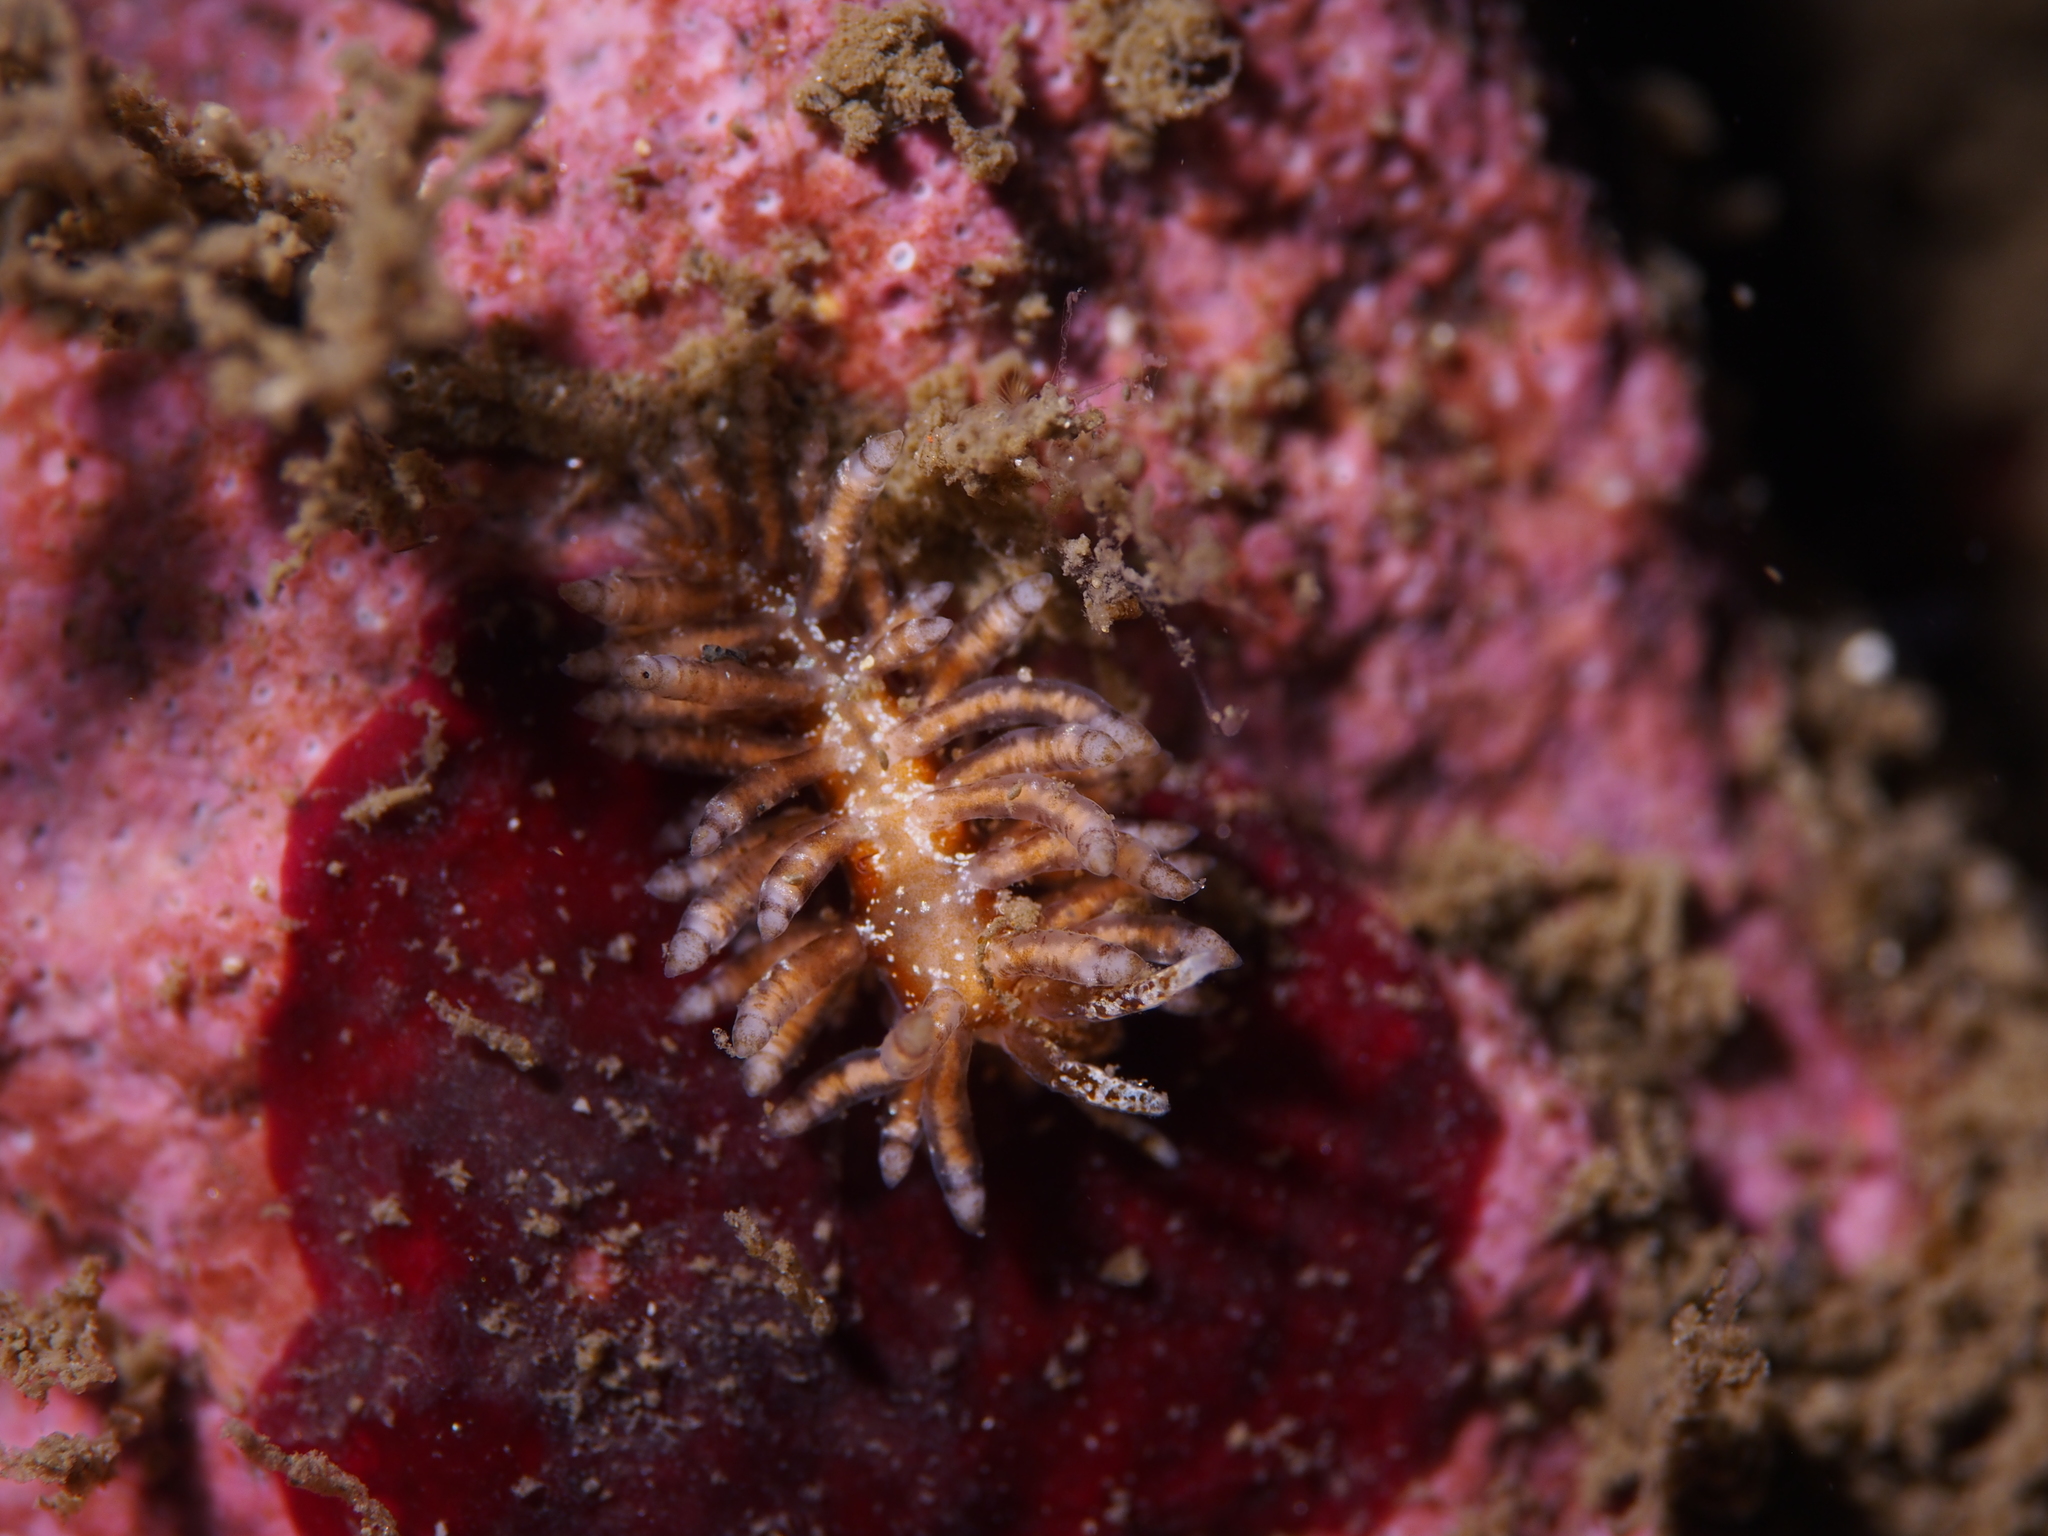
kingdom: Animalia
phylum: Mollusca
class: Gastropoda
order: Nudibranchia
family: Eubranchidae
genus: Eubranchus
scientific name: Eubranchus vittatus
